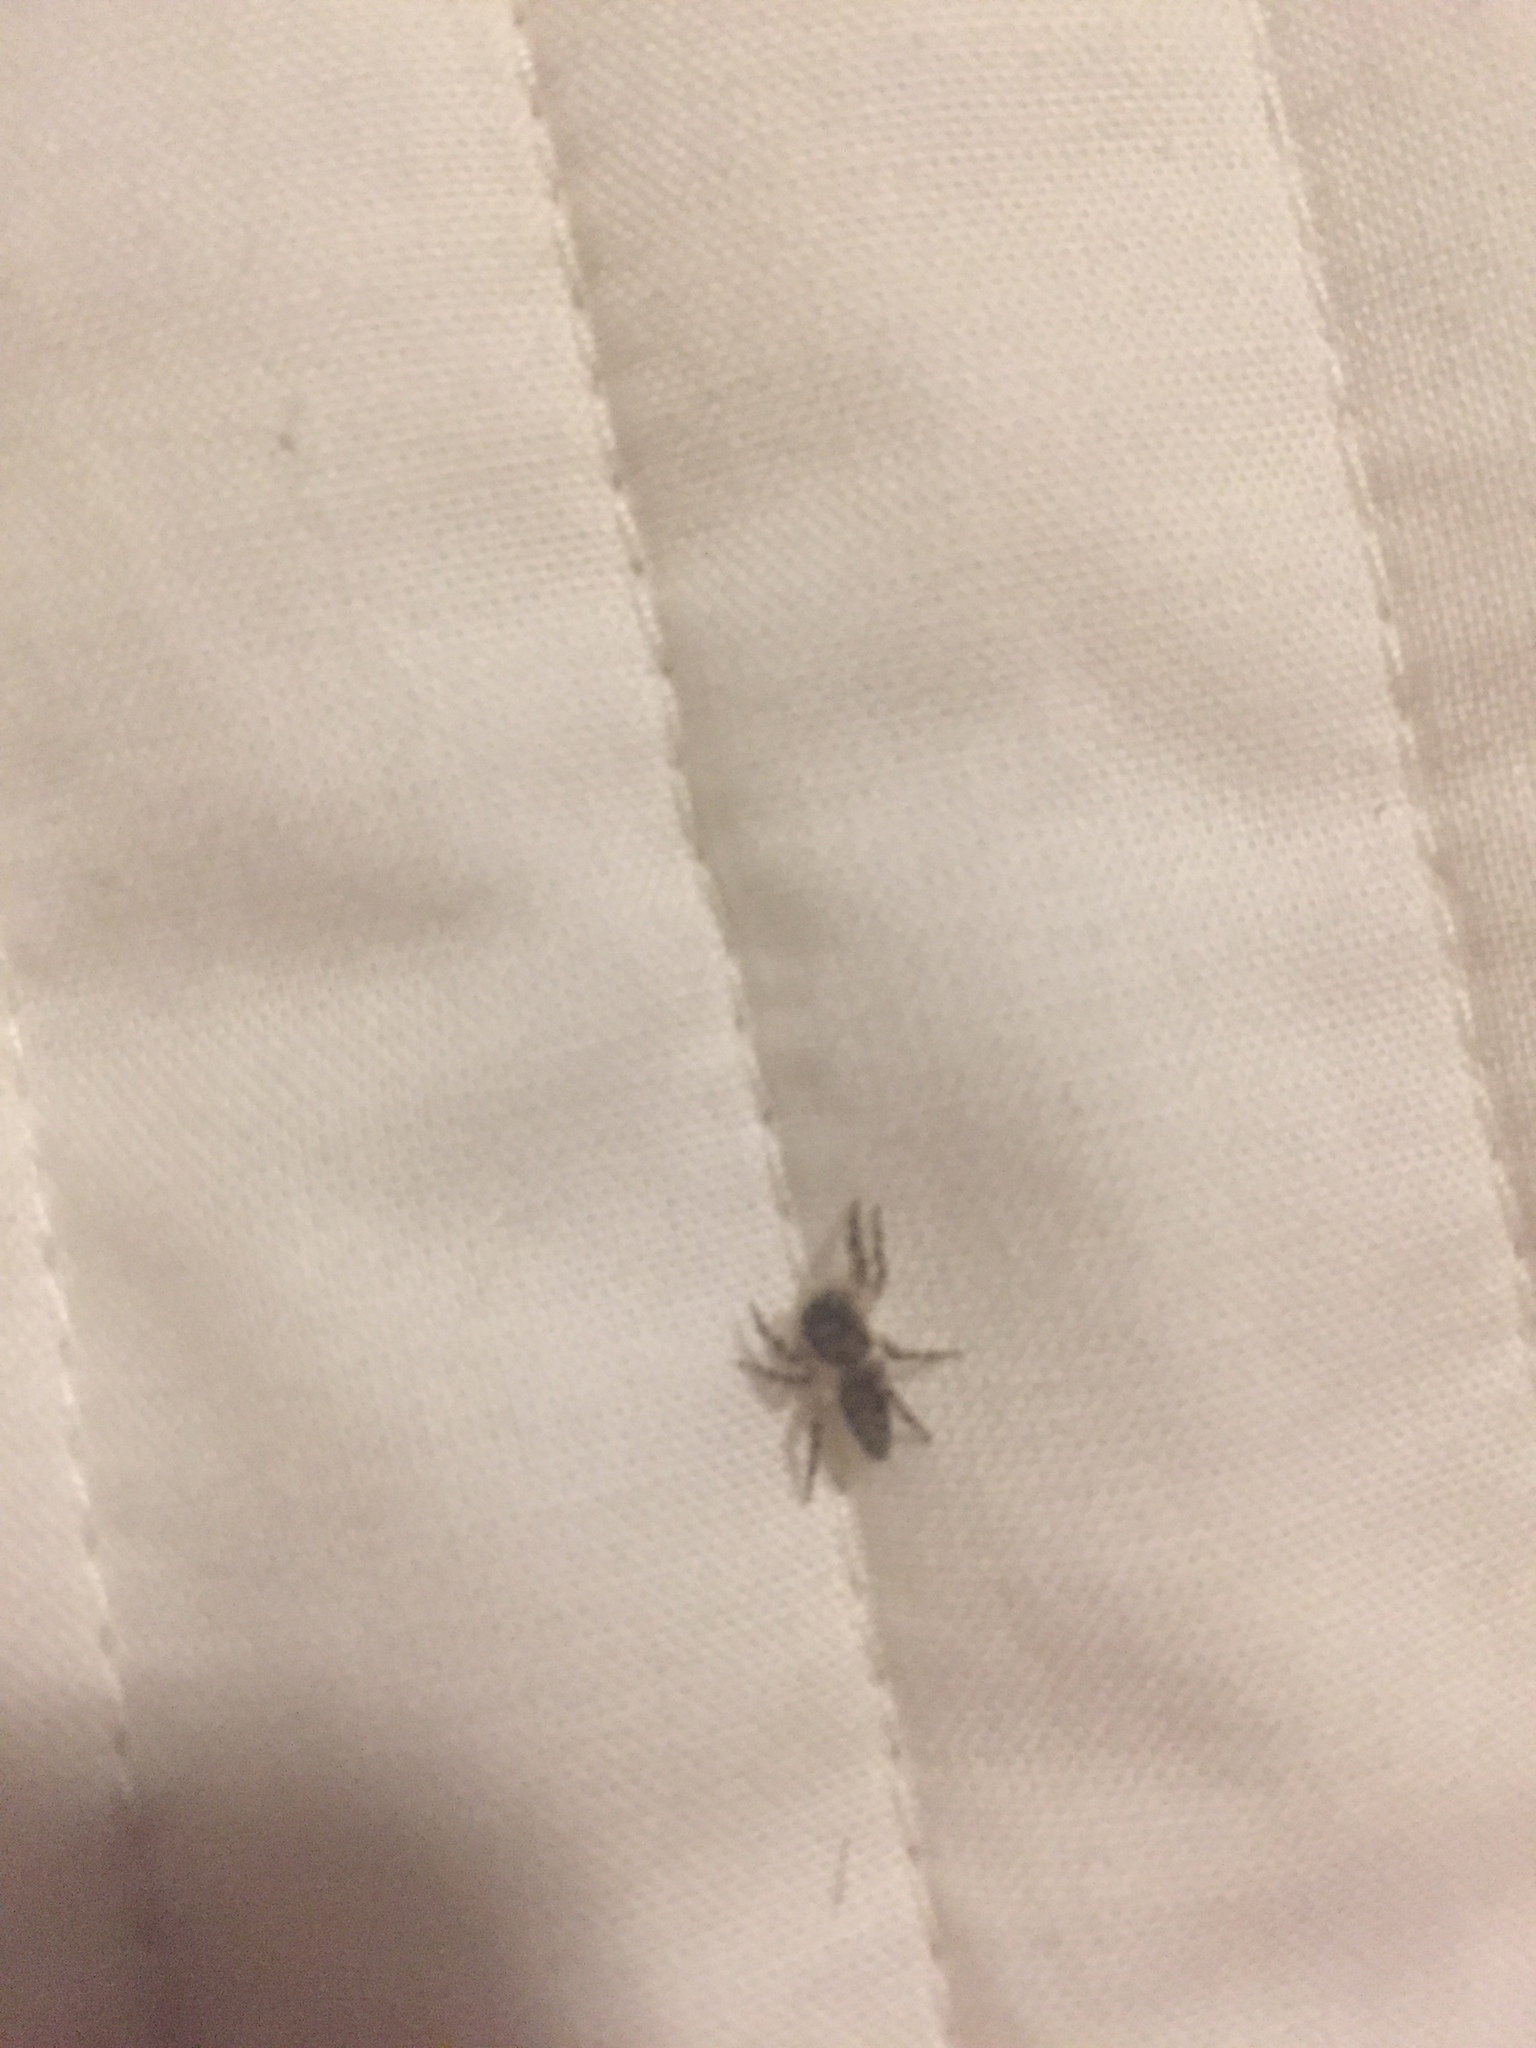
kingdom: Animalia
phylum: Arthropoda
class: Arachnida
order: Araneae
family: Salticidae
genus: Platycryptus
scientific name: Platycryptus undatus
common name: Tan jumping spider
